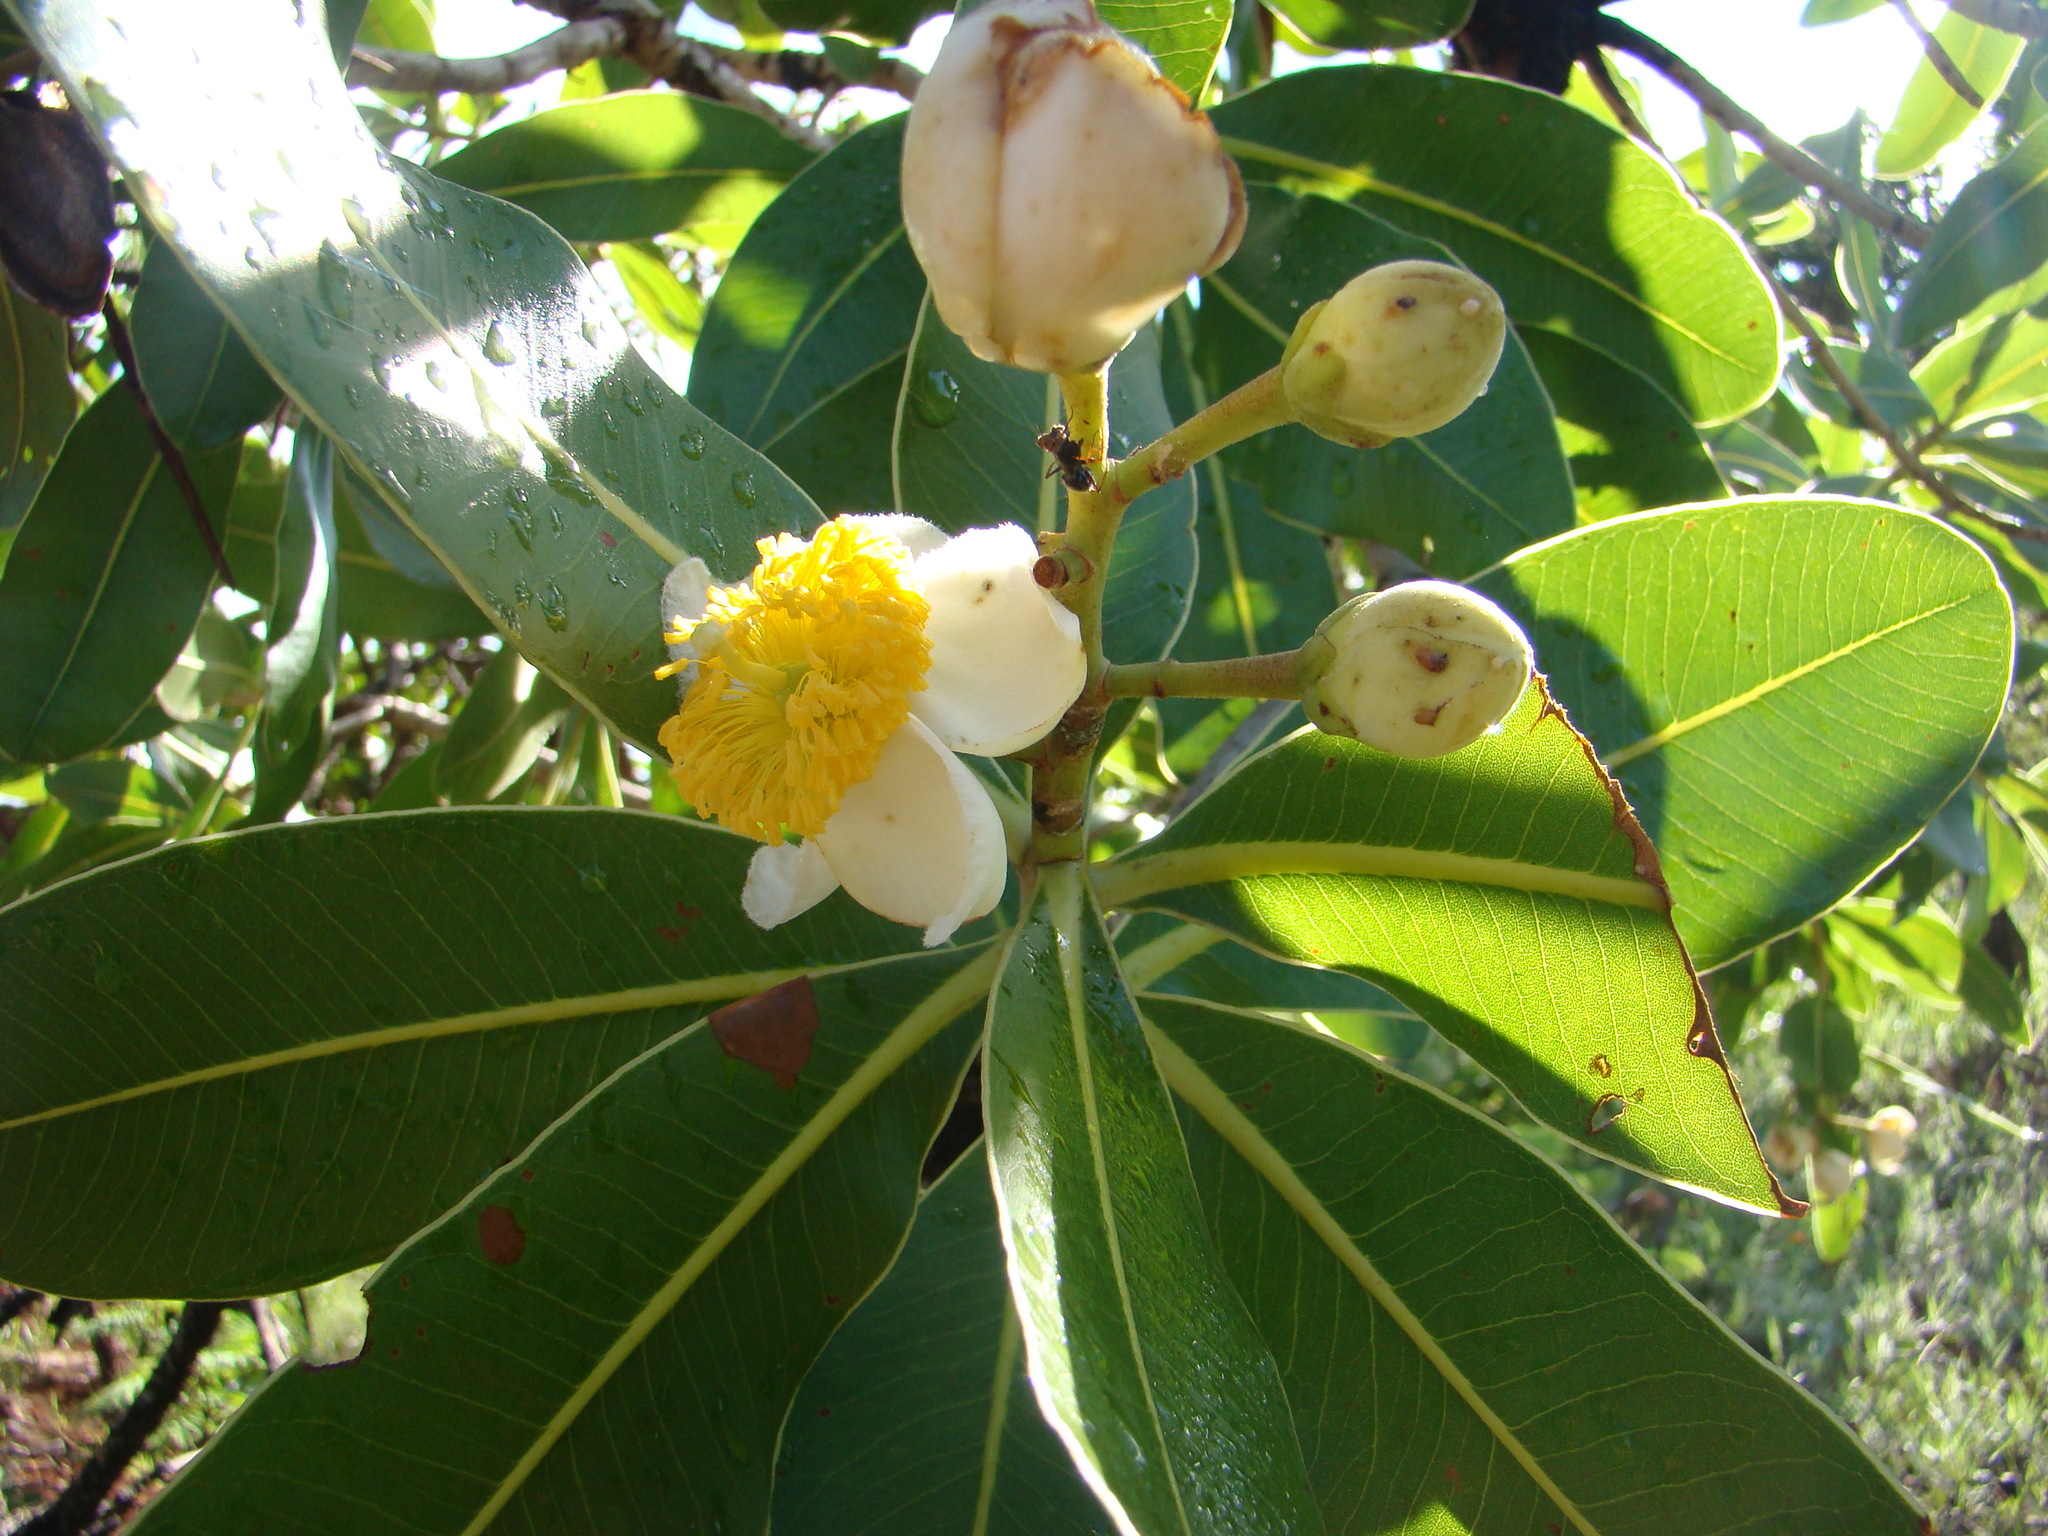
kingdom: Plantae
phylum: Tracheophyta
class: Magnoliopsida
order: Malpighiales
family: Calophyllaceae
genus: Kielmeyera
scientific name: Kielmeyera coriacea
